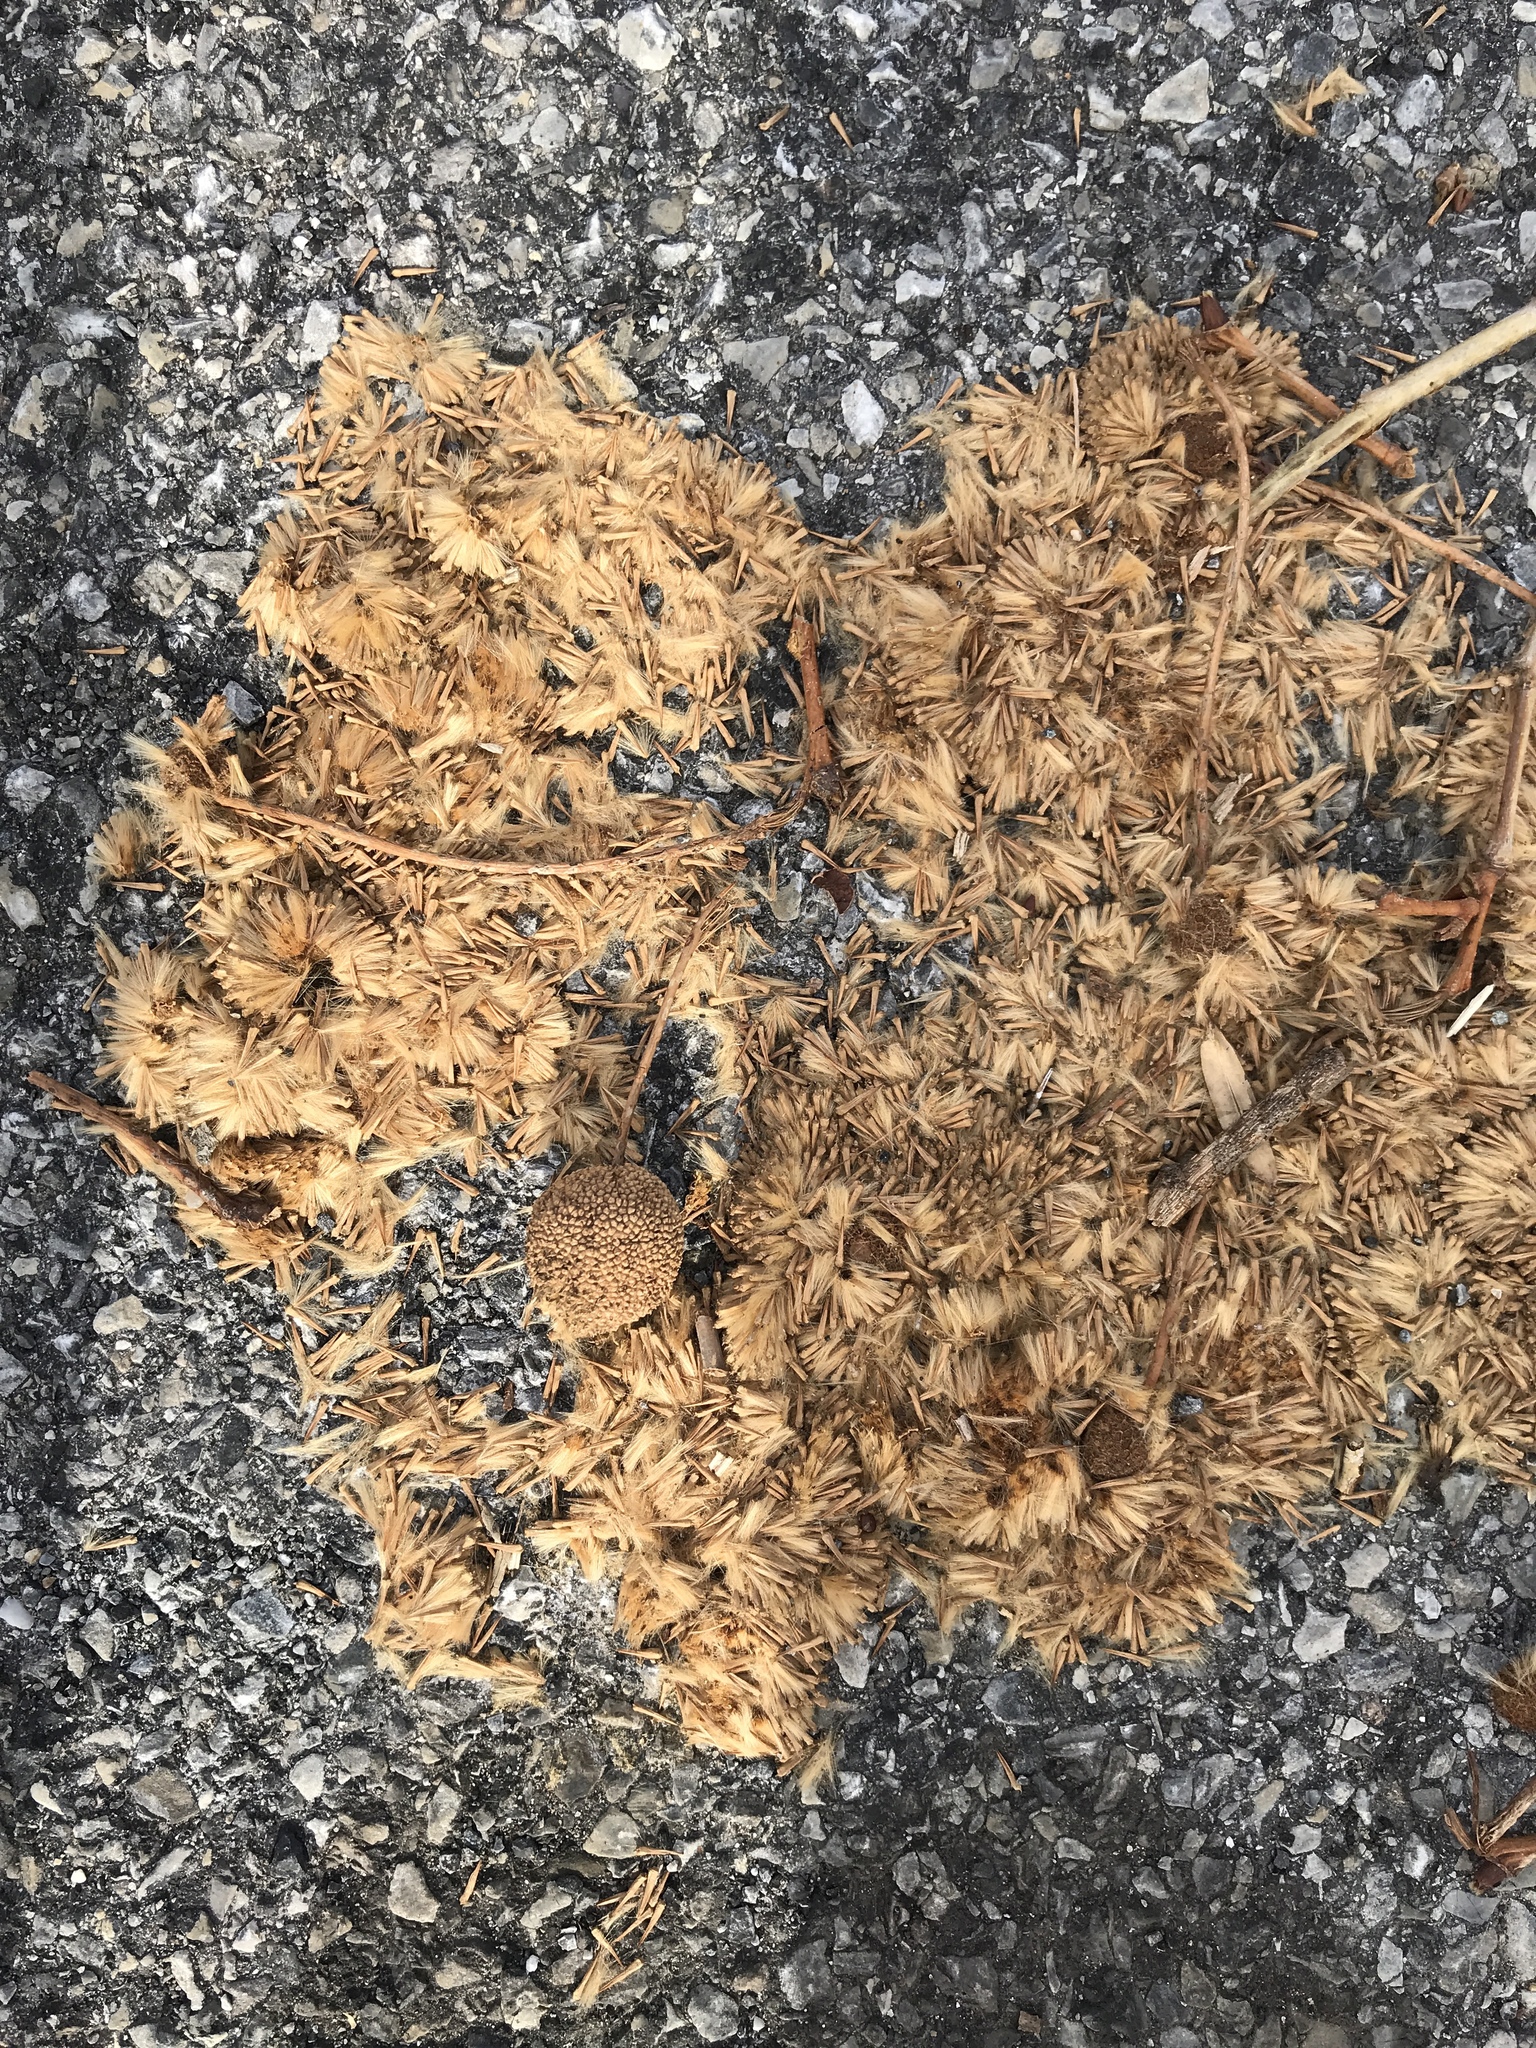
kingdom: Plantae
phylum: Tracheophyta
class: Magnoliopsida
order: Proteales
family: Platanaceae
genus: Platanus
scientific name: Platanus occidentalis
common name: American sycamore
